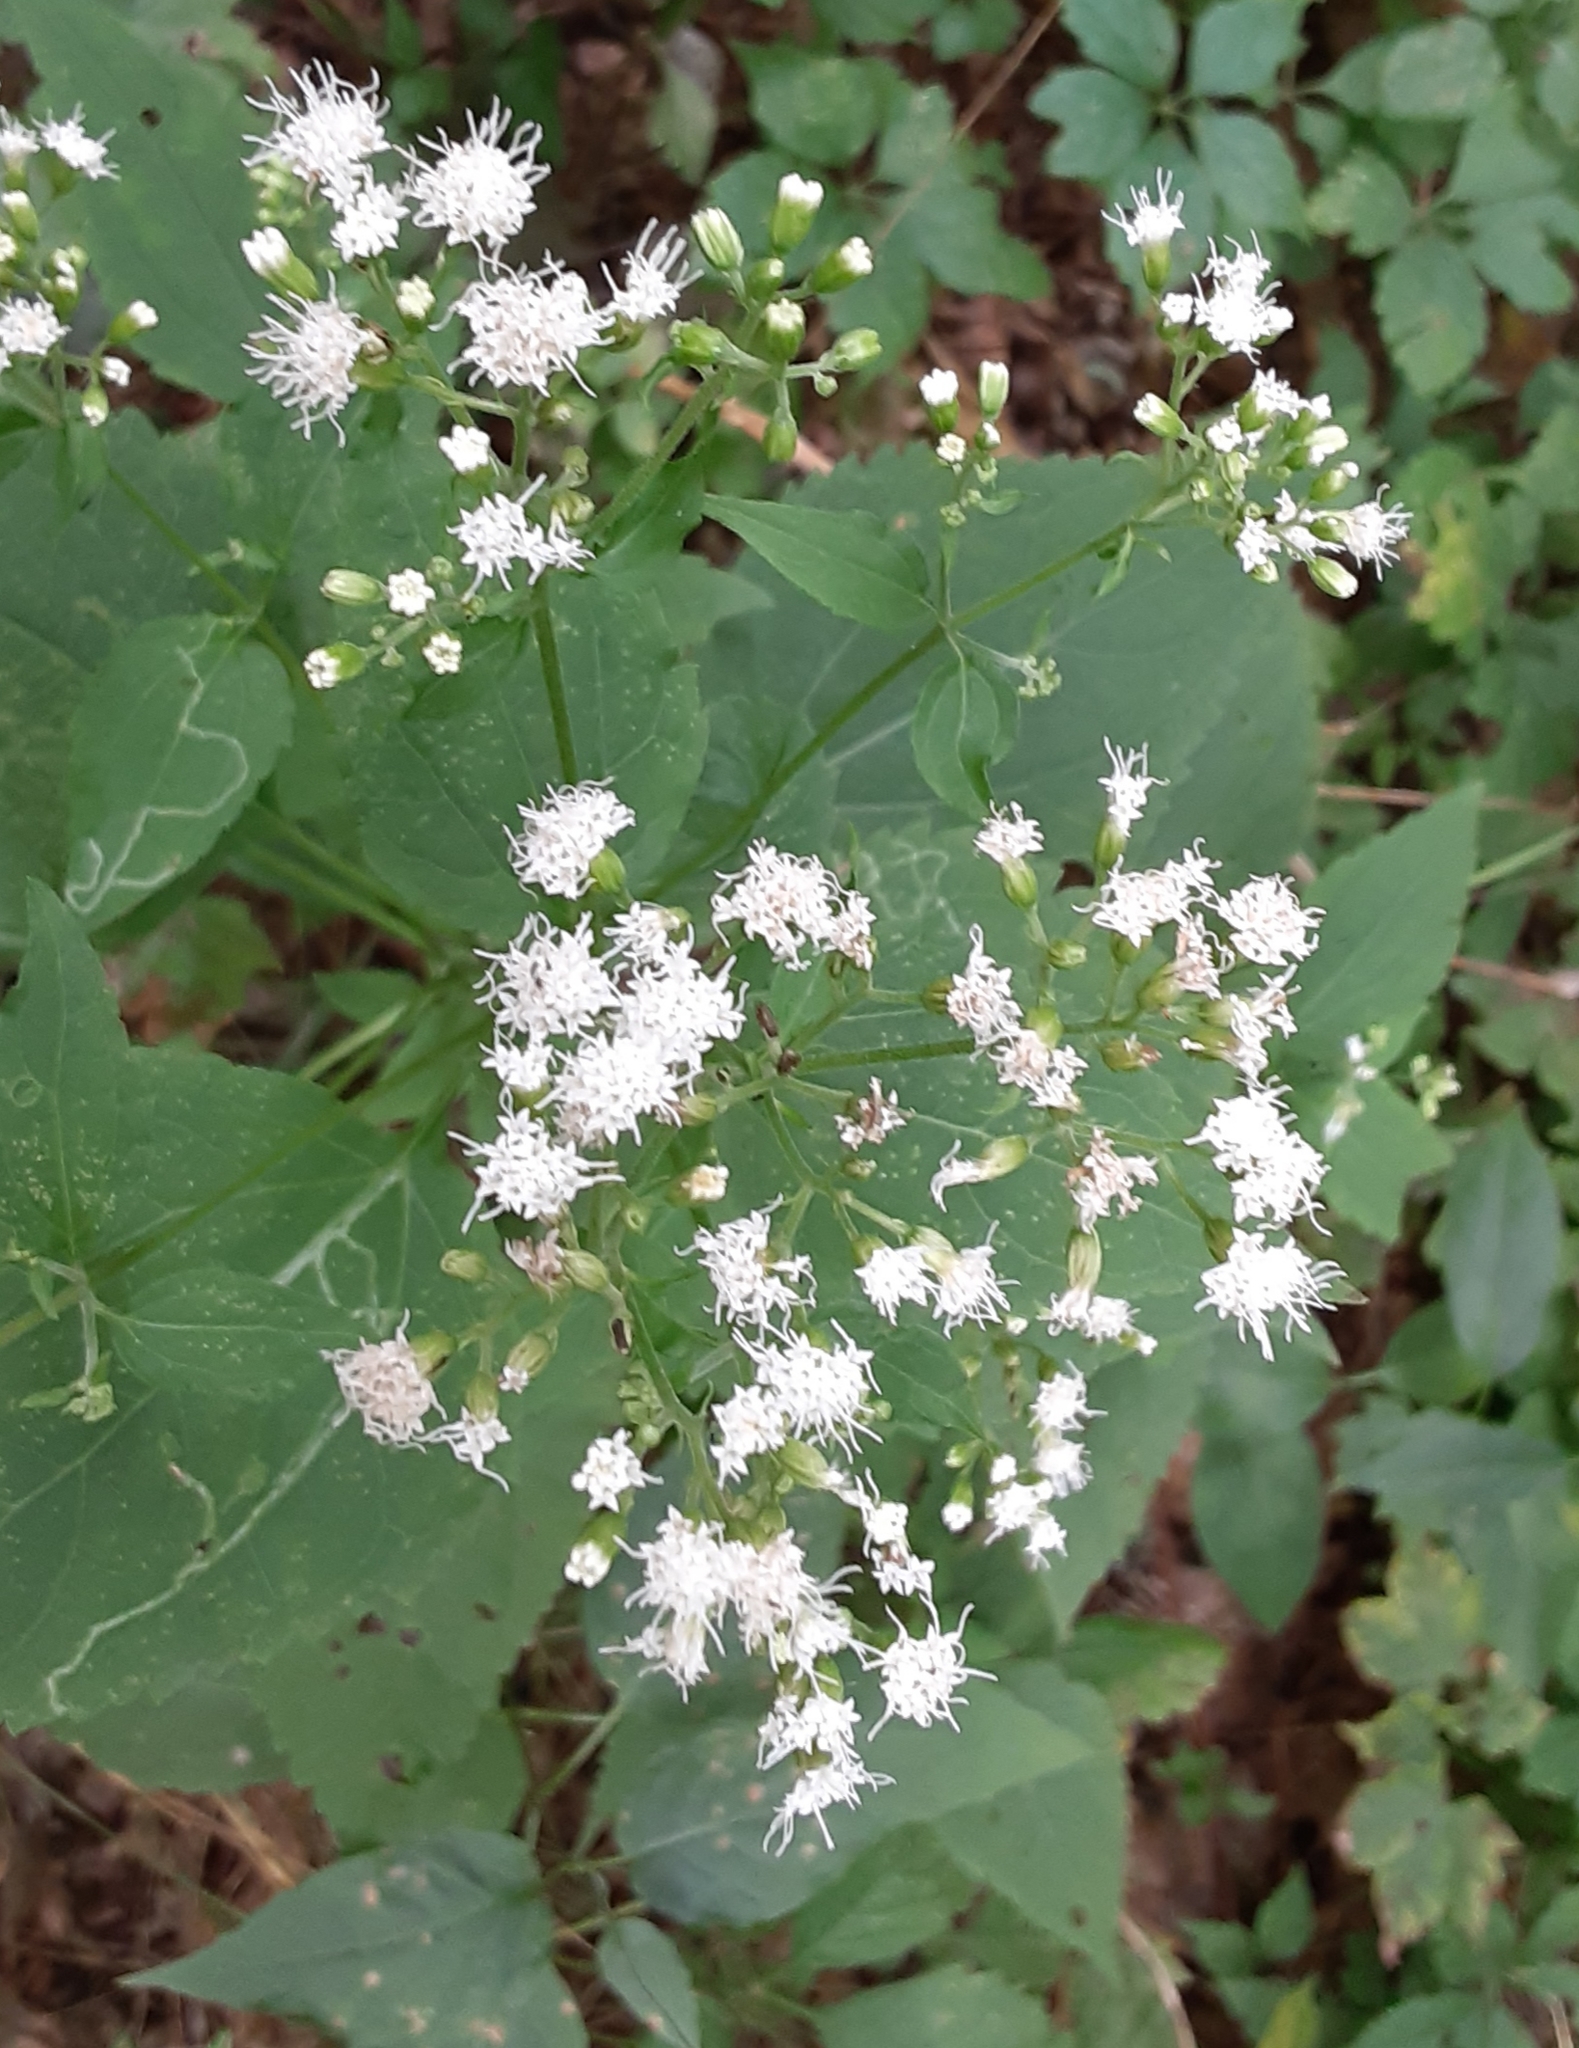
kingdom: Plantae
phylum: Tracheophyta
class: Magnoliopsida
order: Asterales
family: Asteraceae
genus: Ageratina
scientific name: Ageratina altissima
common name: White snakeroot
